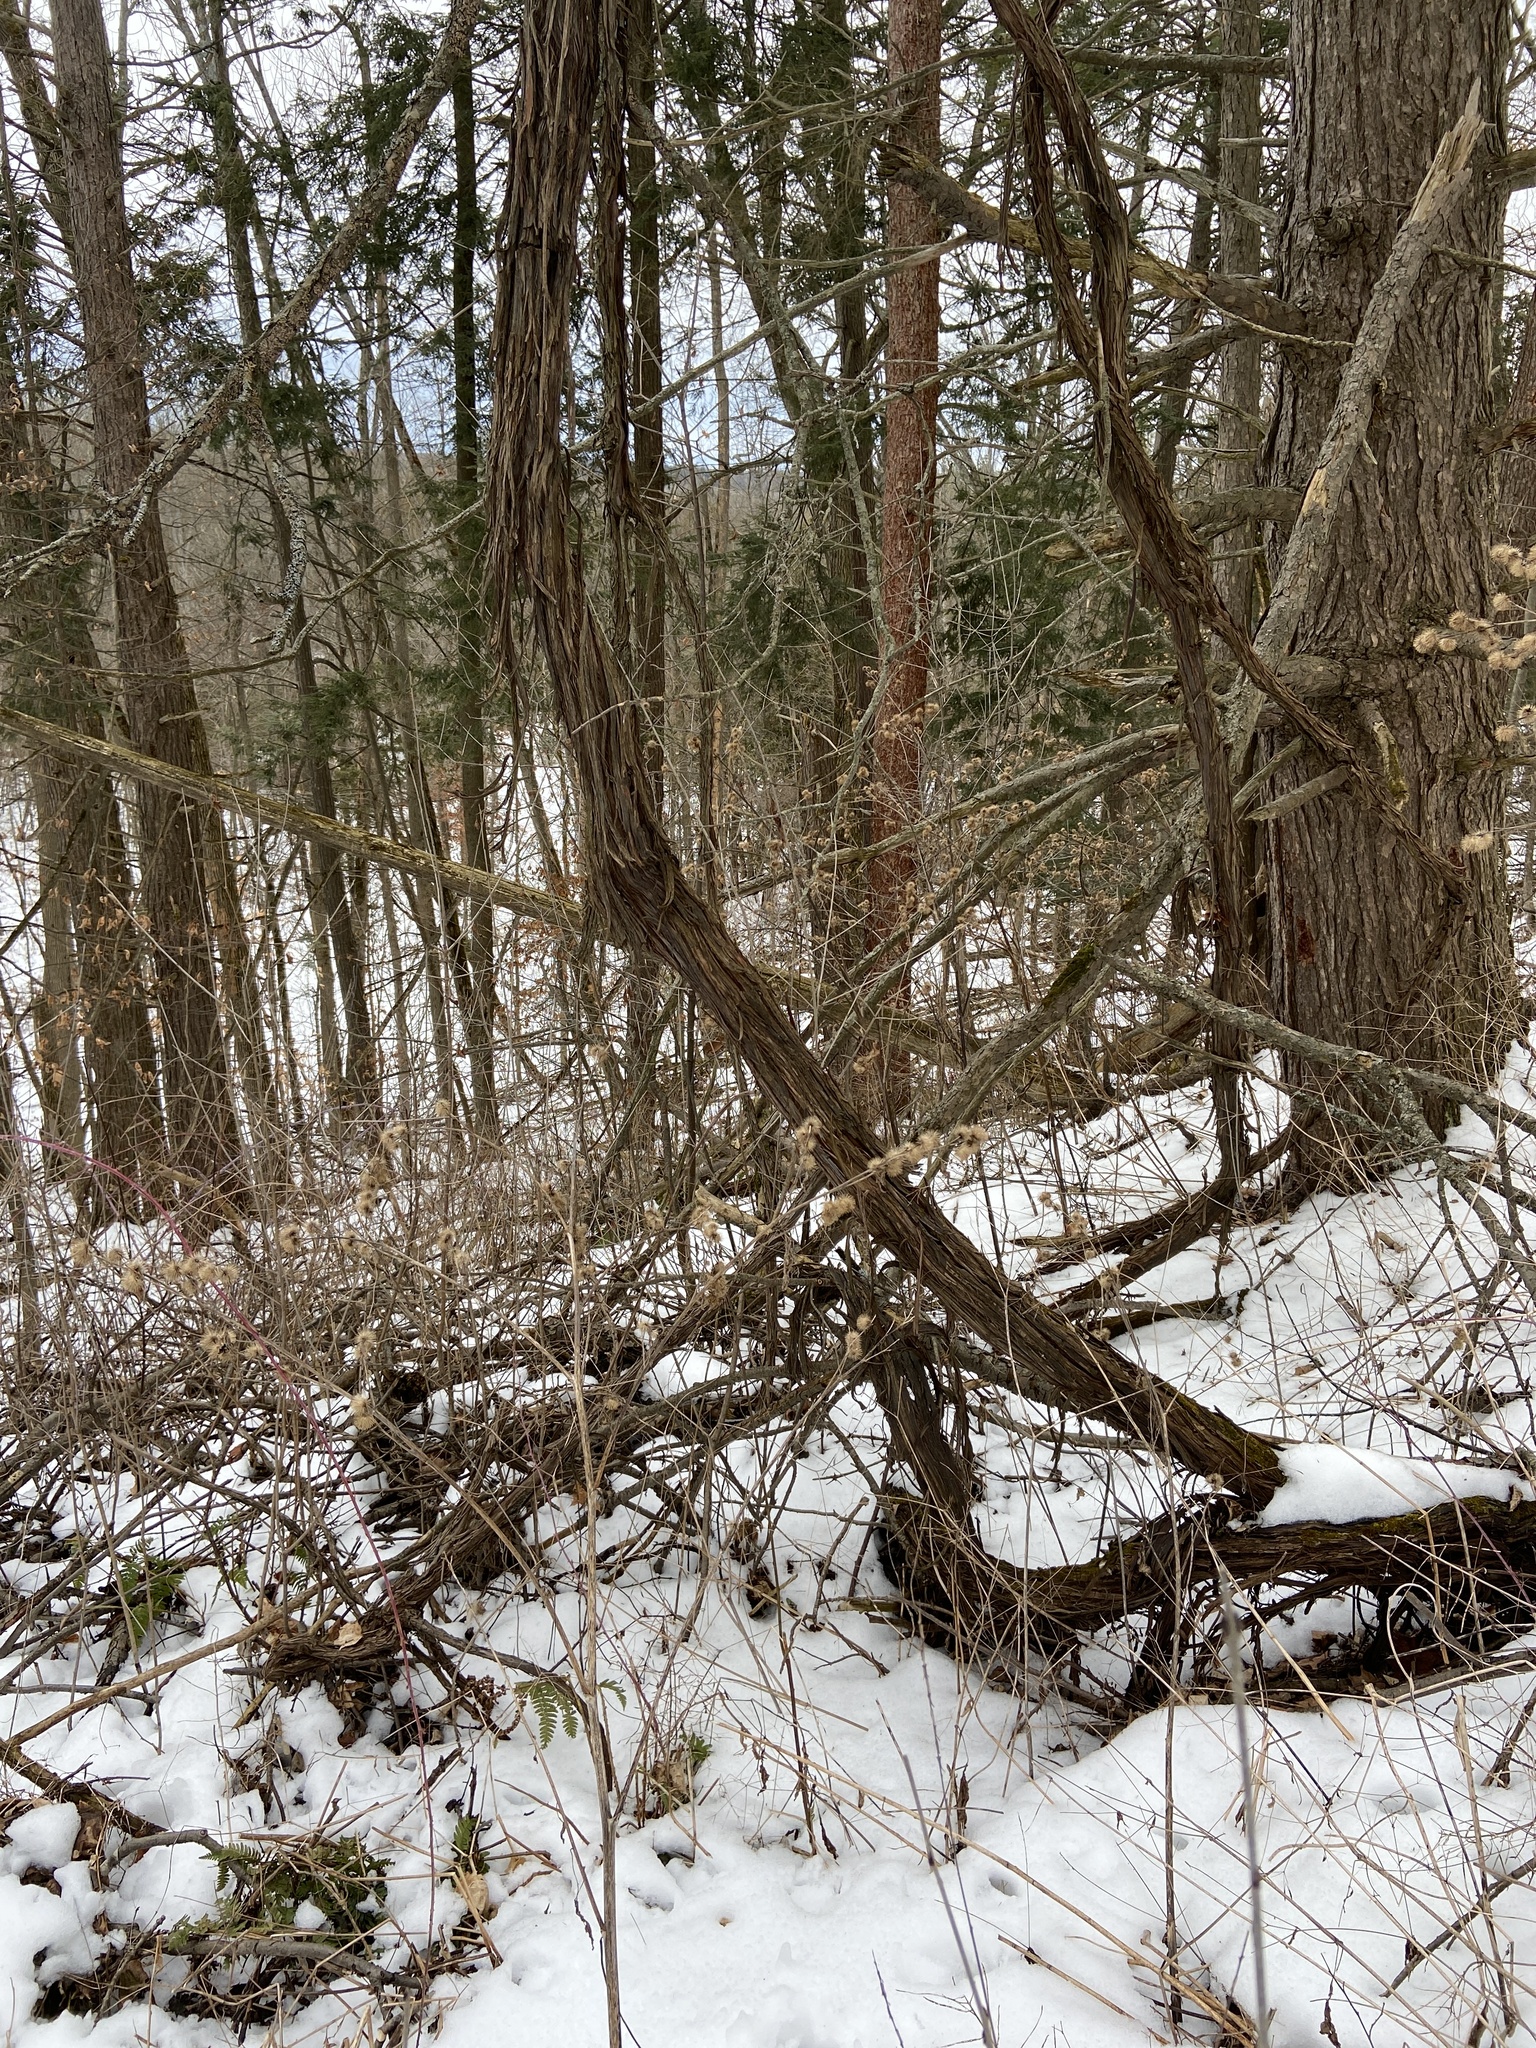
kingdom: Plantae
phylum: Tracheophyta
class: Magnoliopsida
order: Vitales
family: Vitaceae
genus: Vitis
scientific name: Vitis riparia
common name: Frost grape
